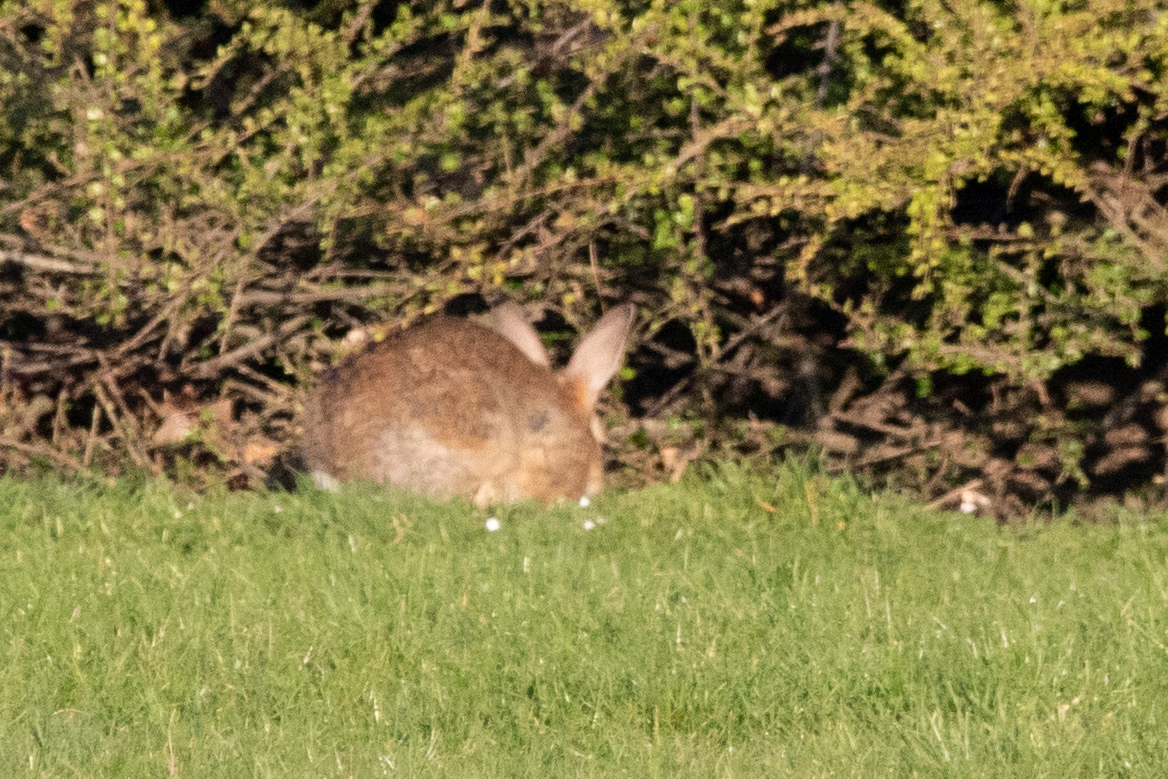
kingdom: Animalia
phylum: Chordata
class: Mammalia
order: Lagomorpha
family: Leporidae
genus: Oryctolagus
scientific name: Oryctolagus cuniculus
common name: European rabbit
